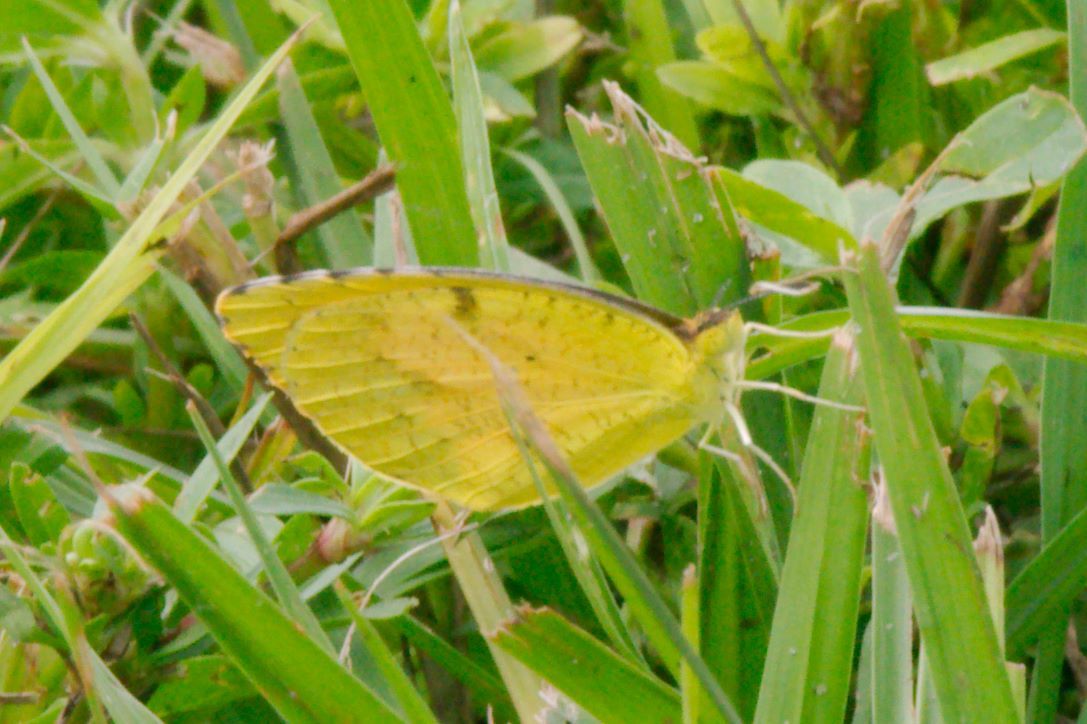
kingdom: Animalia
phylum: Arthropoda
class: Insecta
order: Lepidoptera
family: Pieridae
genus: Abaeis
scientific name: Abaeis nicippe
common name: Sleepy orange
